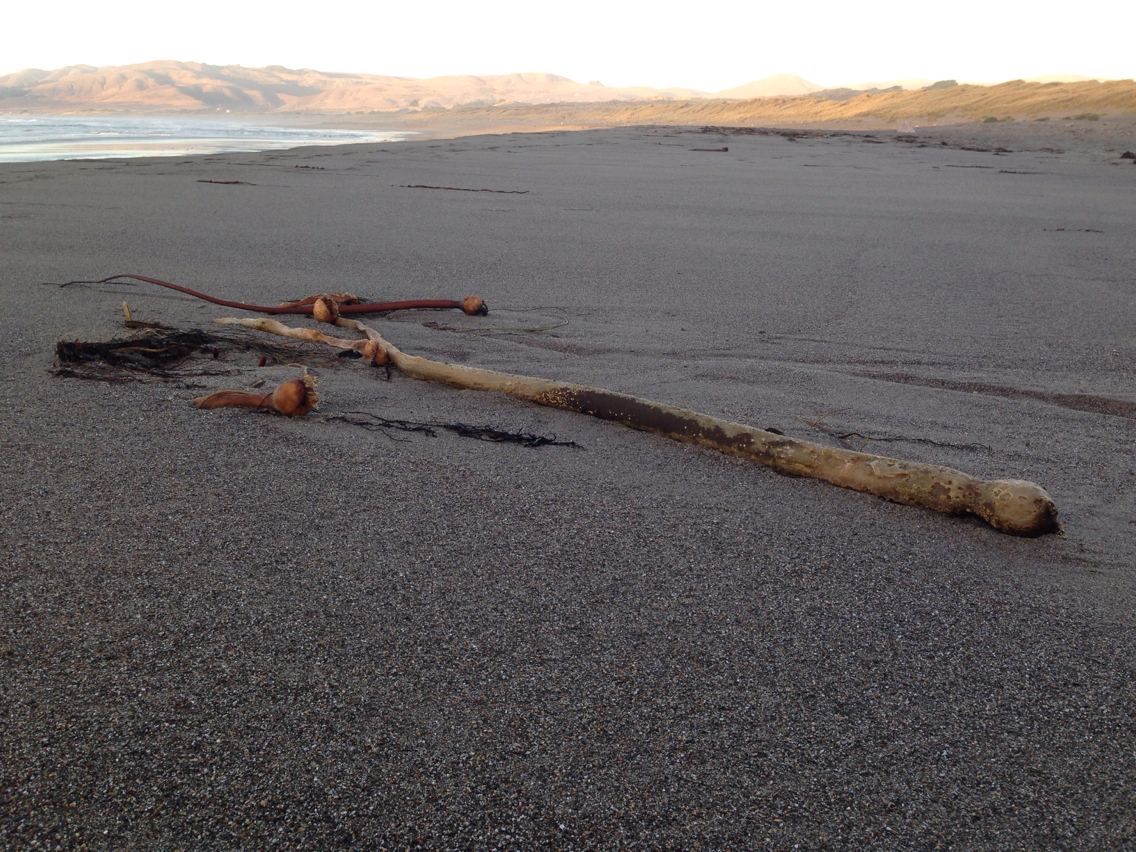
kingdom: Chromista
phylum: Ochrophyta
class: Phaeophyceae
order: Laminariales
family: Laminariaceae
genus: Nereocystis
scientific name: Nereocystis luetkeana
